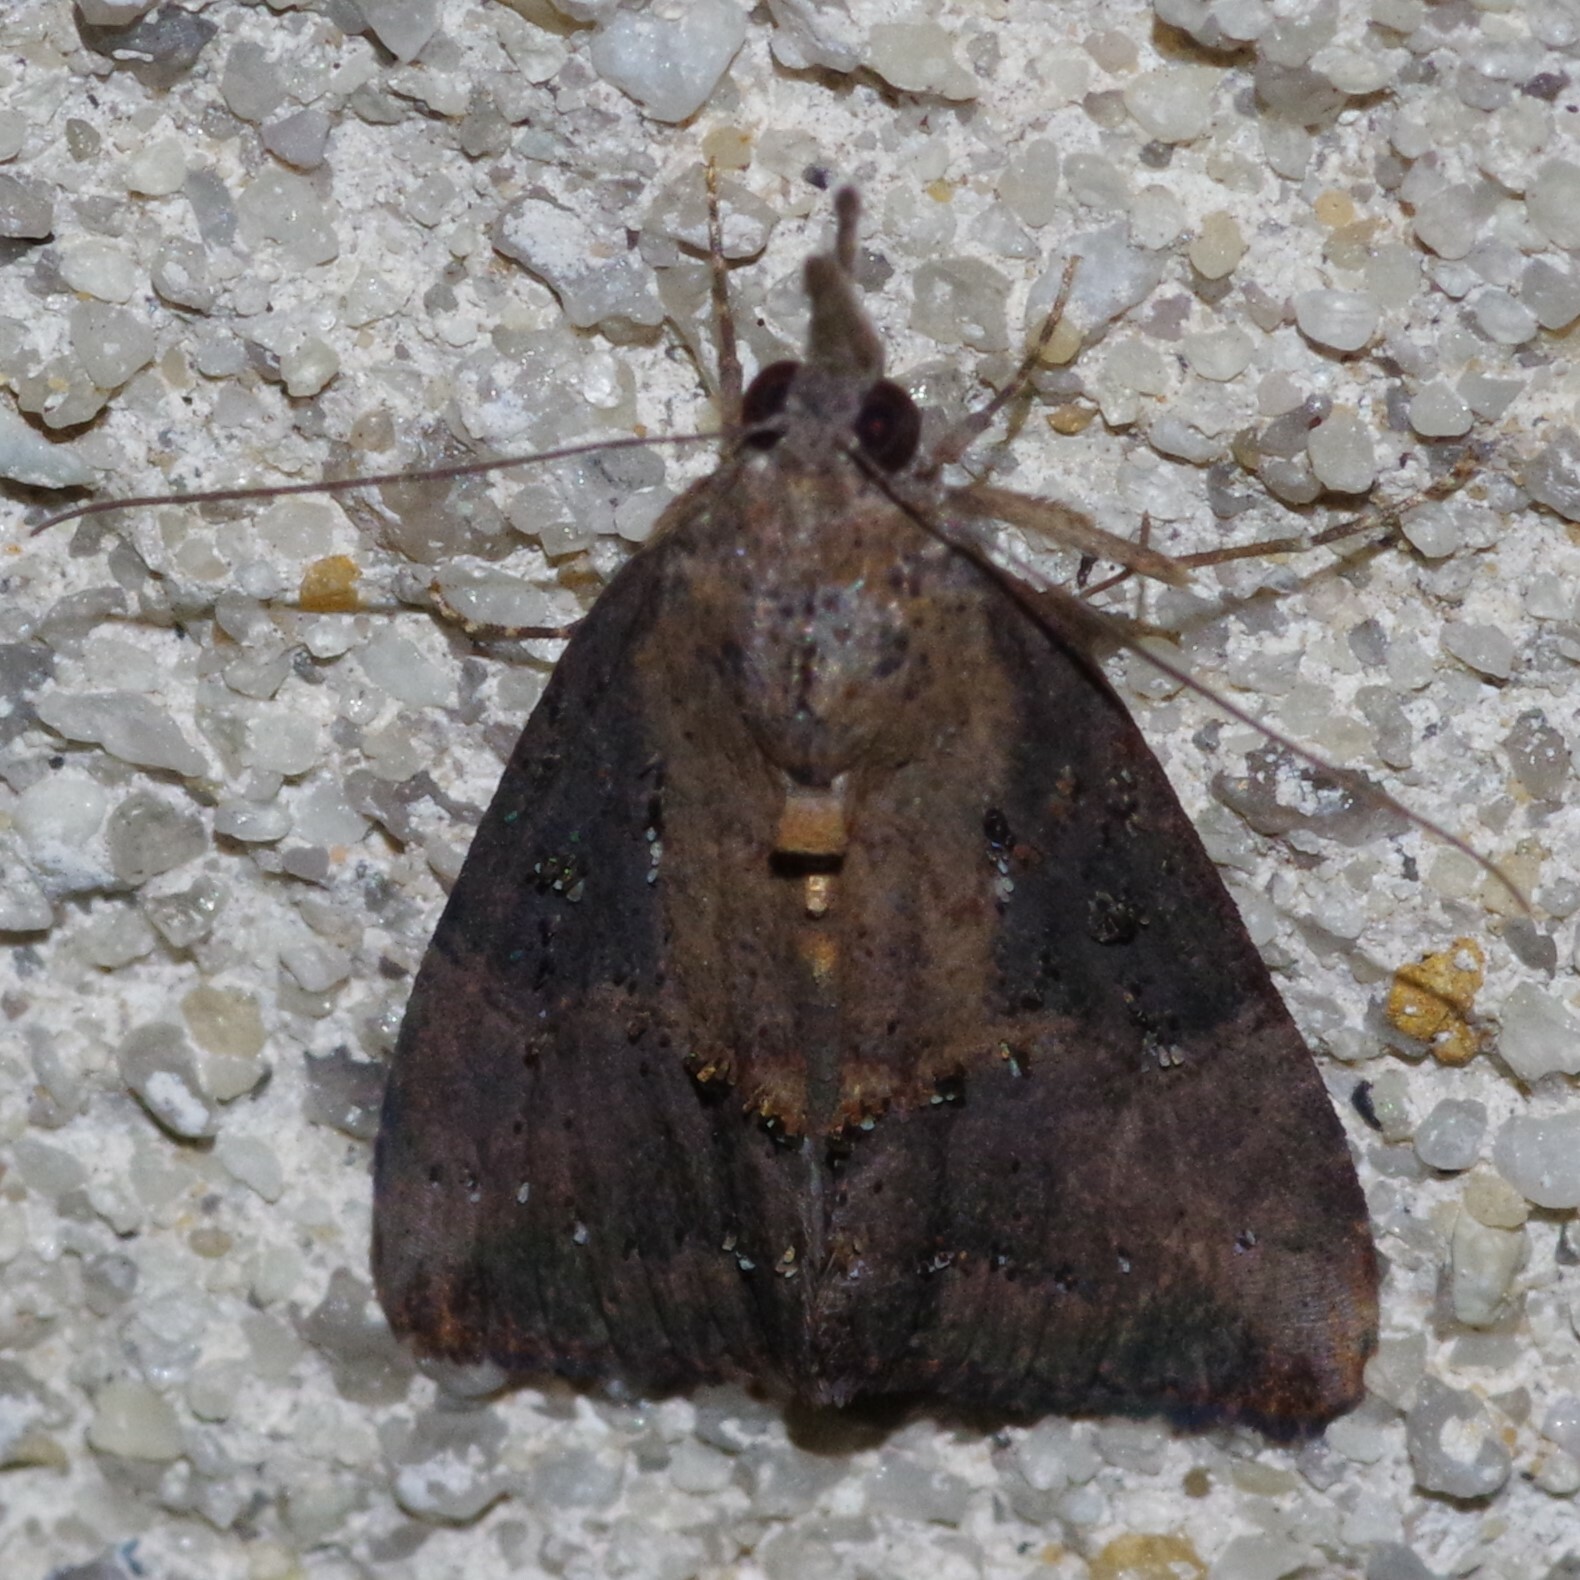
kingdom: Animalia
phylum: Arthropoda
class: Insecta
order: Lepidoptera
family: Erebidae
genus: Hypena
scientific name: Hypena scabra
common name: Green cloverworm
